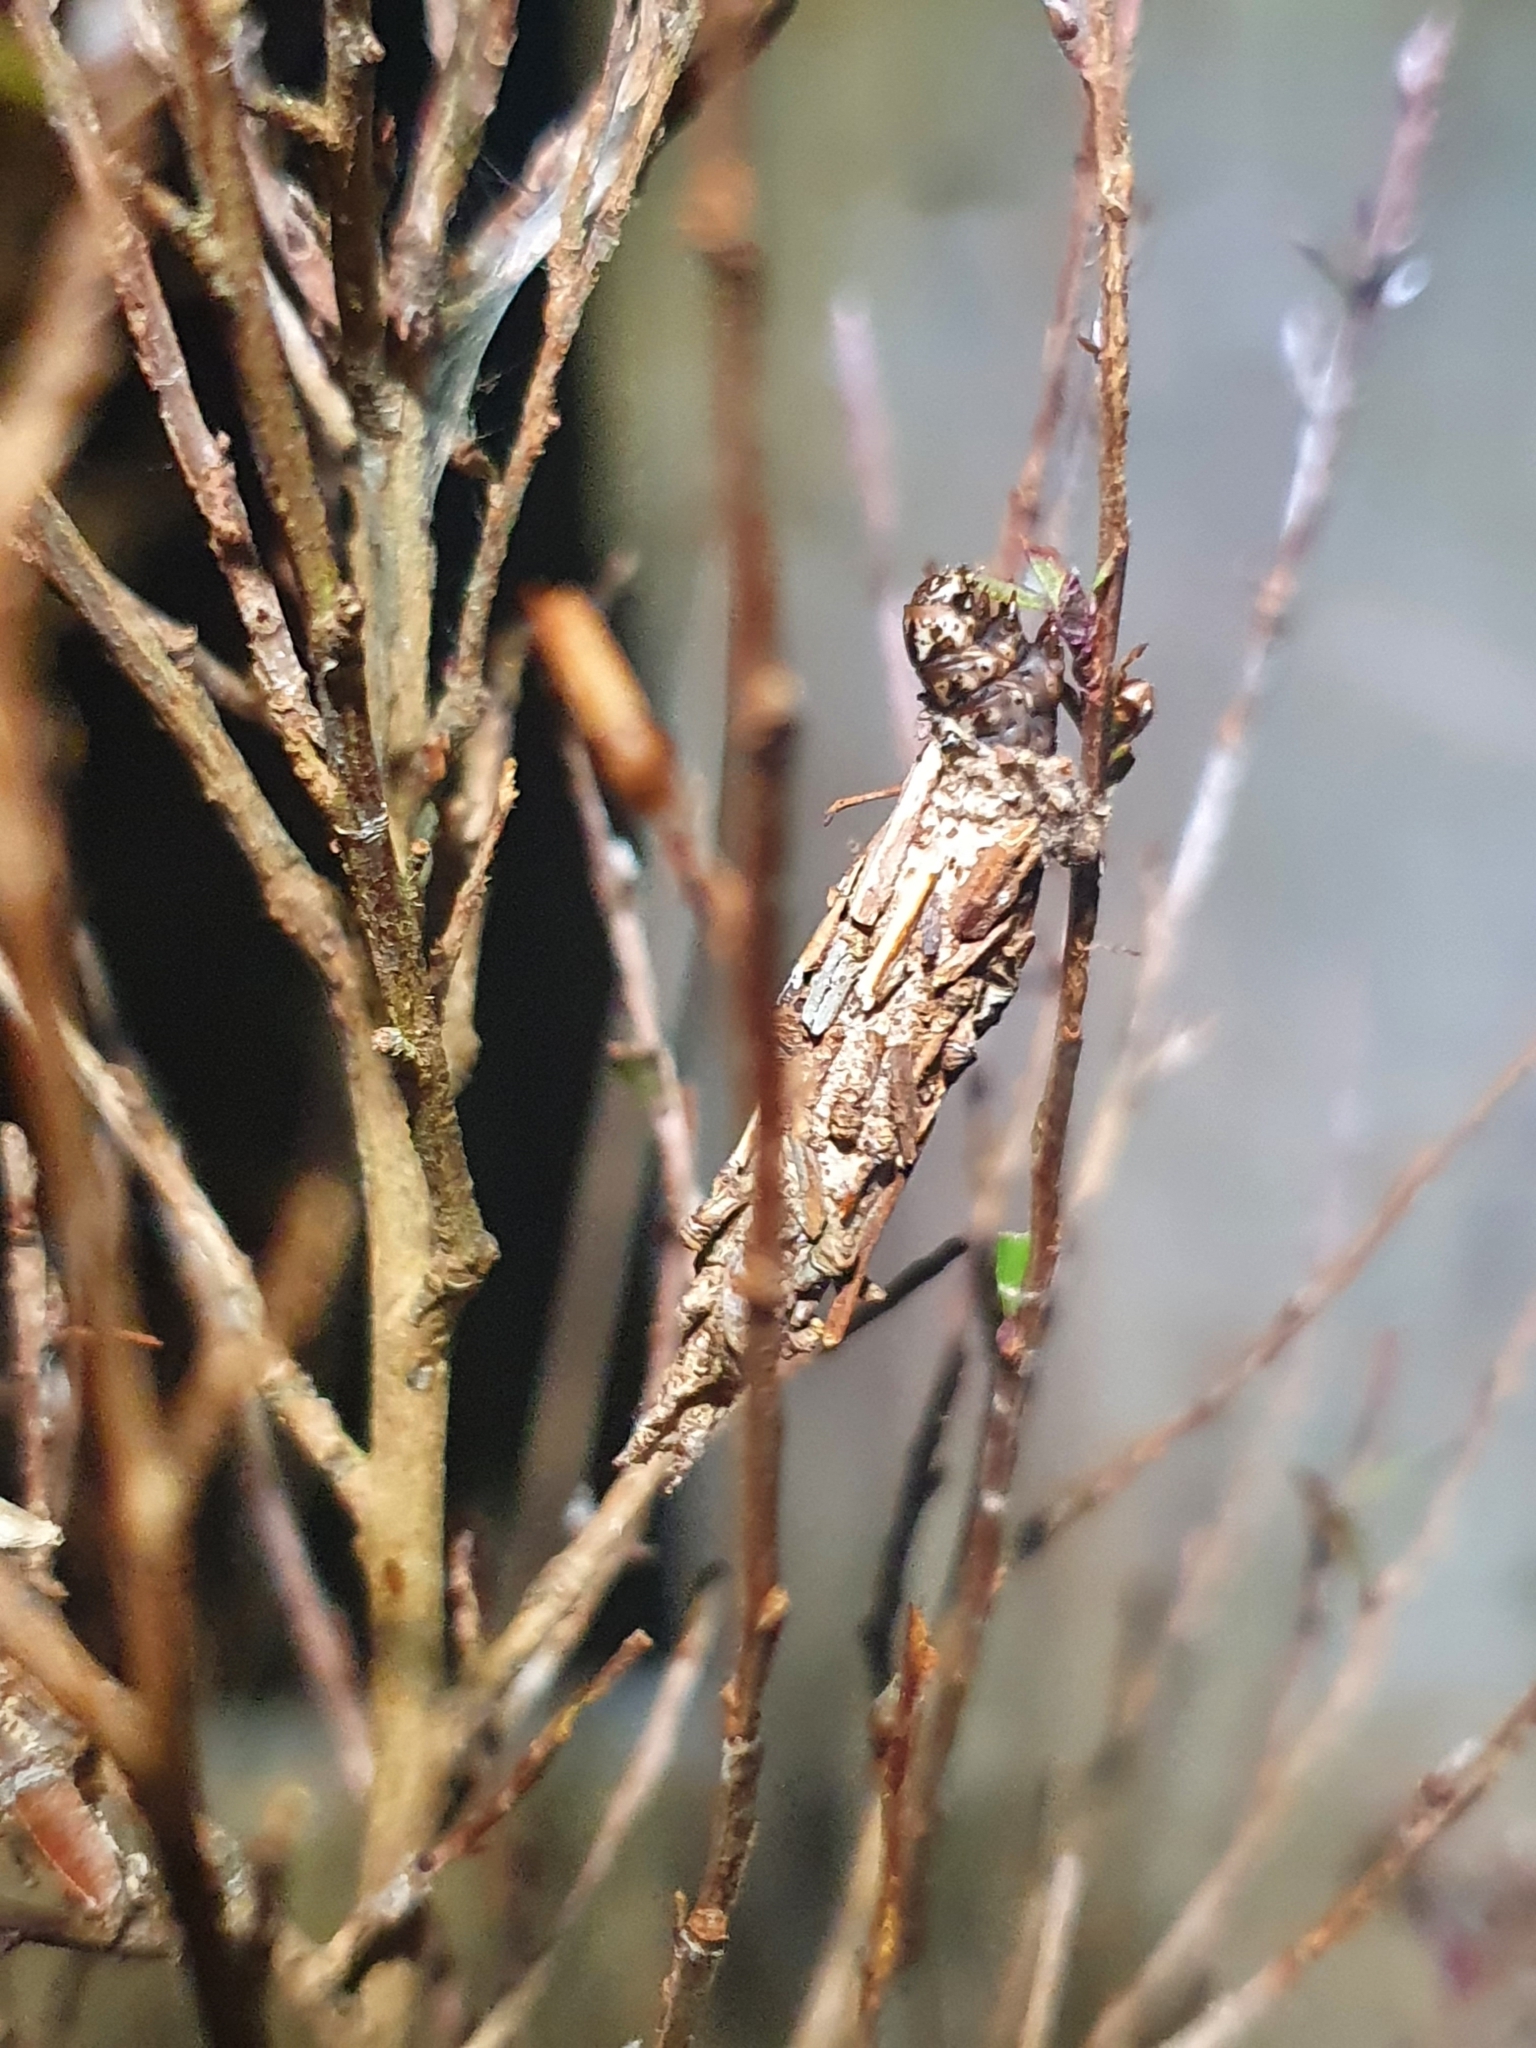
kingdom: Animalia
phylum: Arthropoda
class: Insecta
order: Lepidoptera
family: Psychidae
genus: Liothula
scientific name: Liothula omnivora
